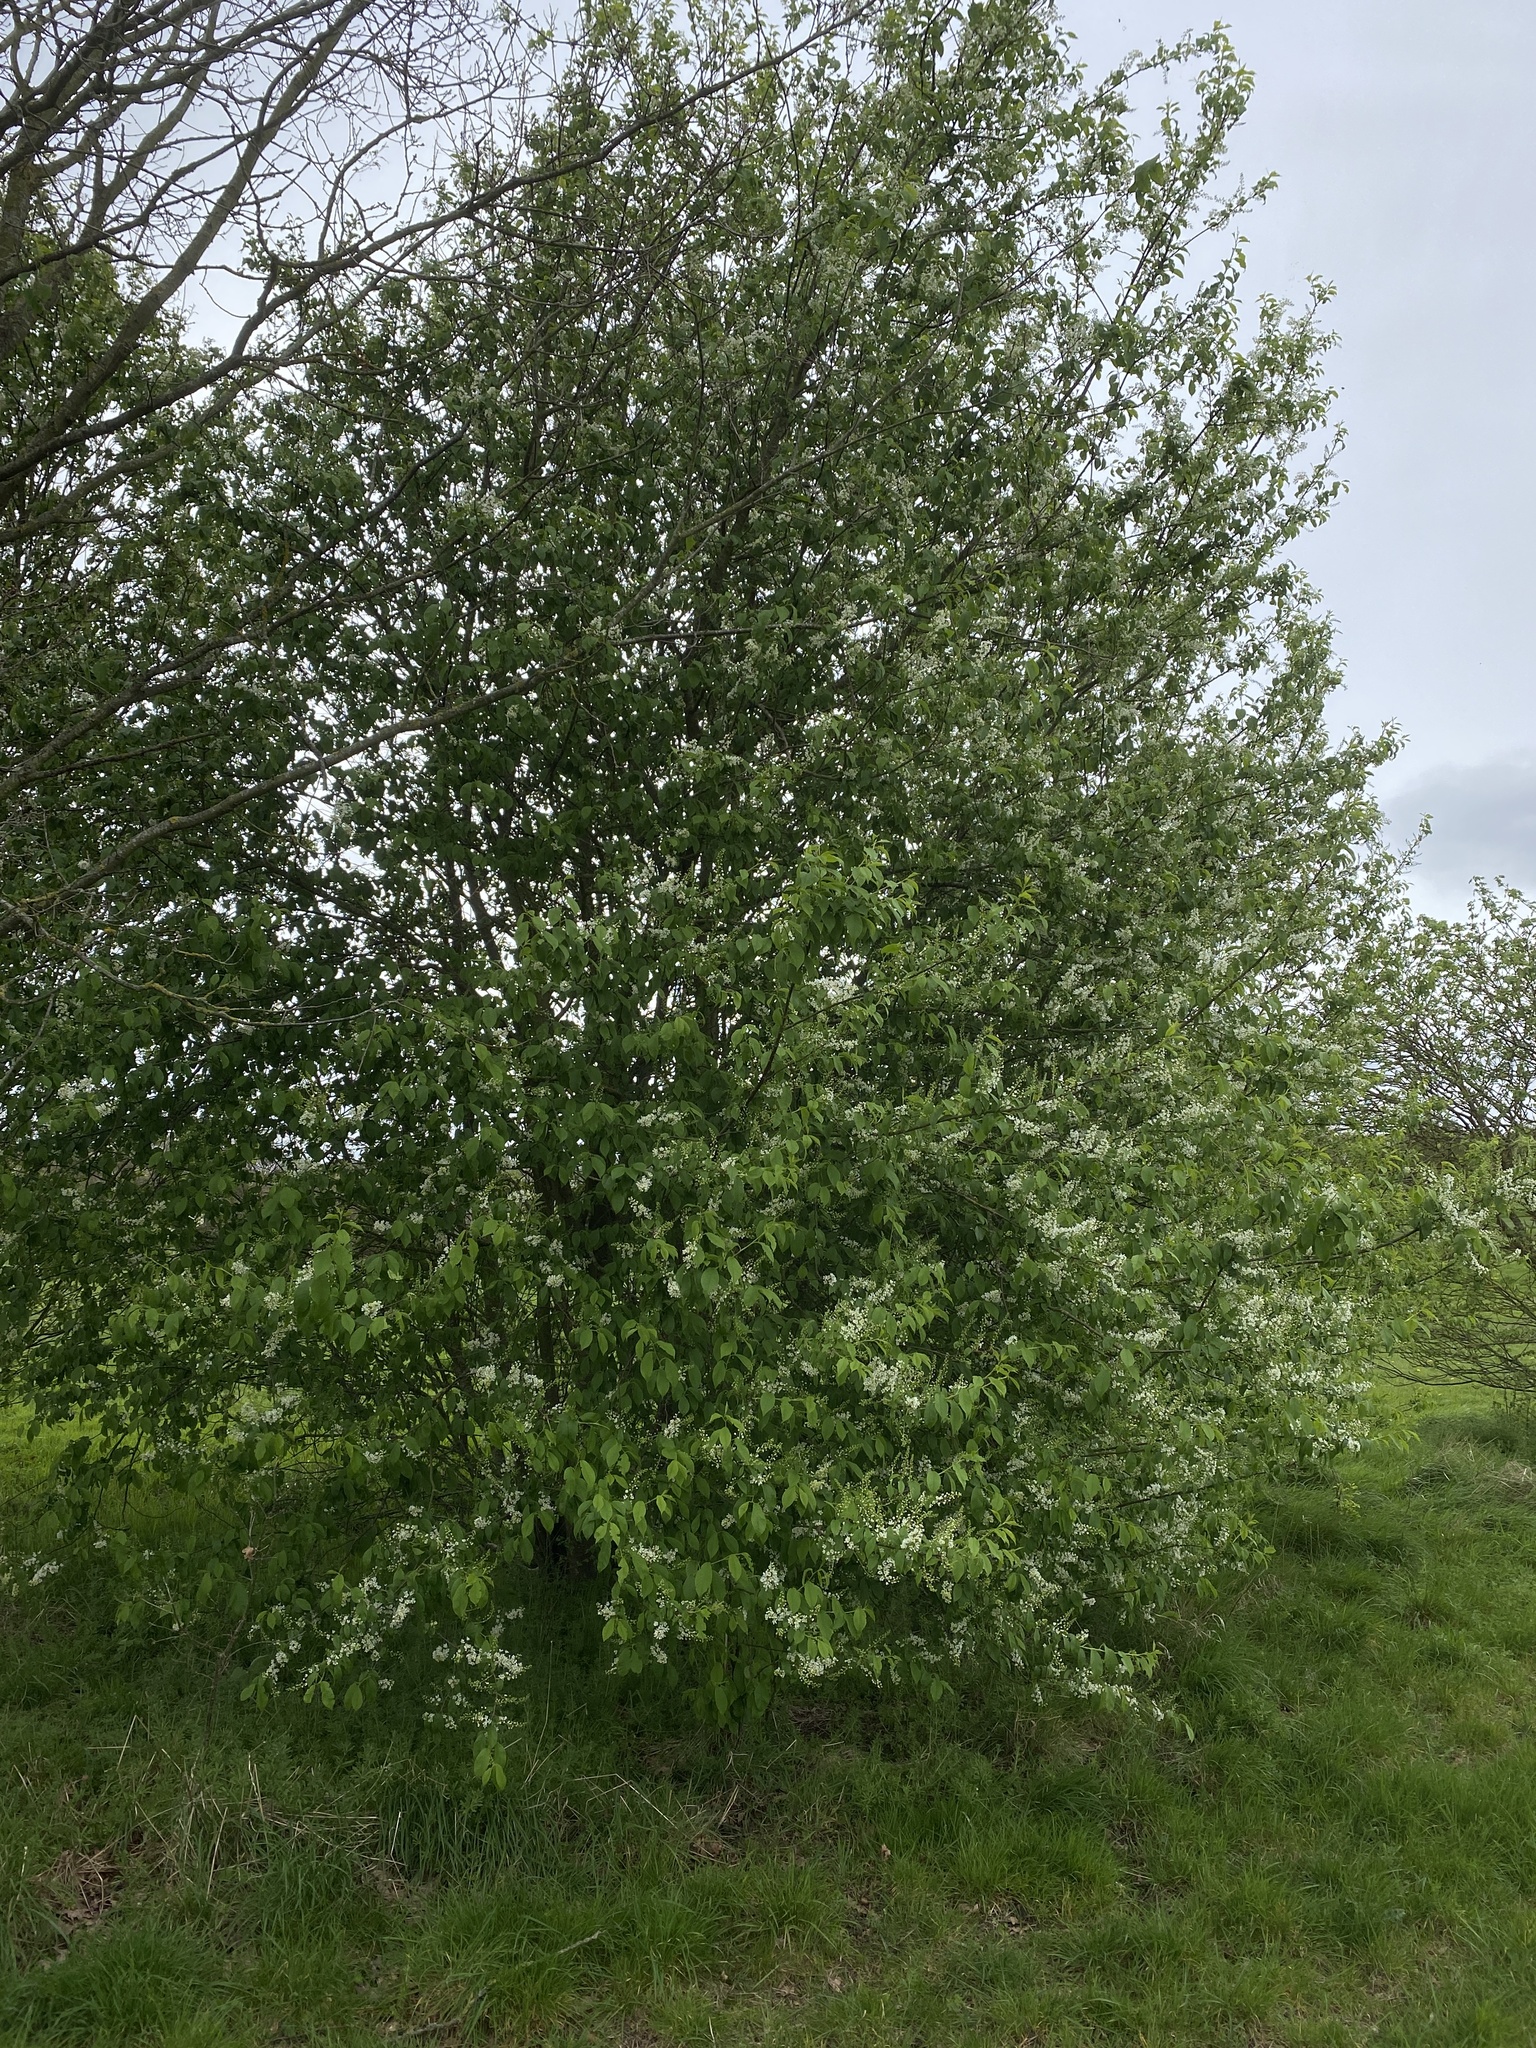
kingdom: Plantae
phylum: Tracheophyta
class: Magnoliopsida
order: Rosales
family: Rosaceae
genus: Prunus
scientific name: Prunus padus
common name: Bird cherry
